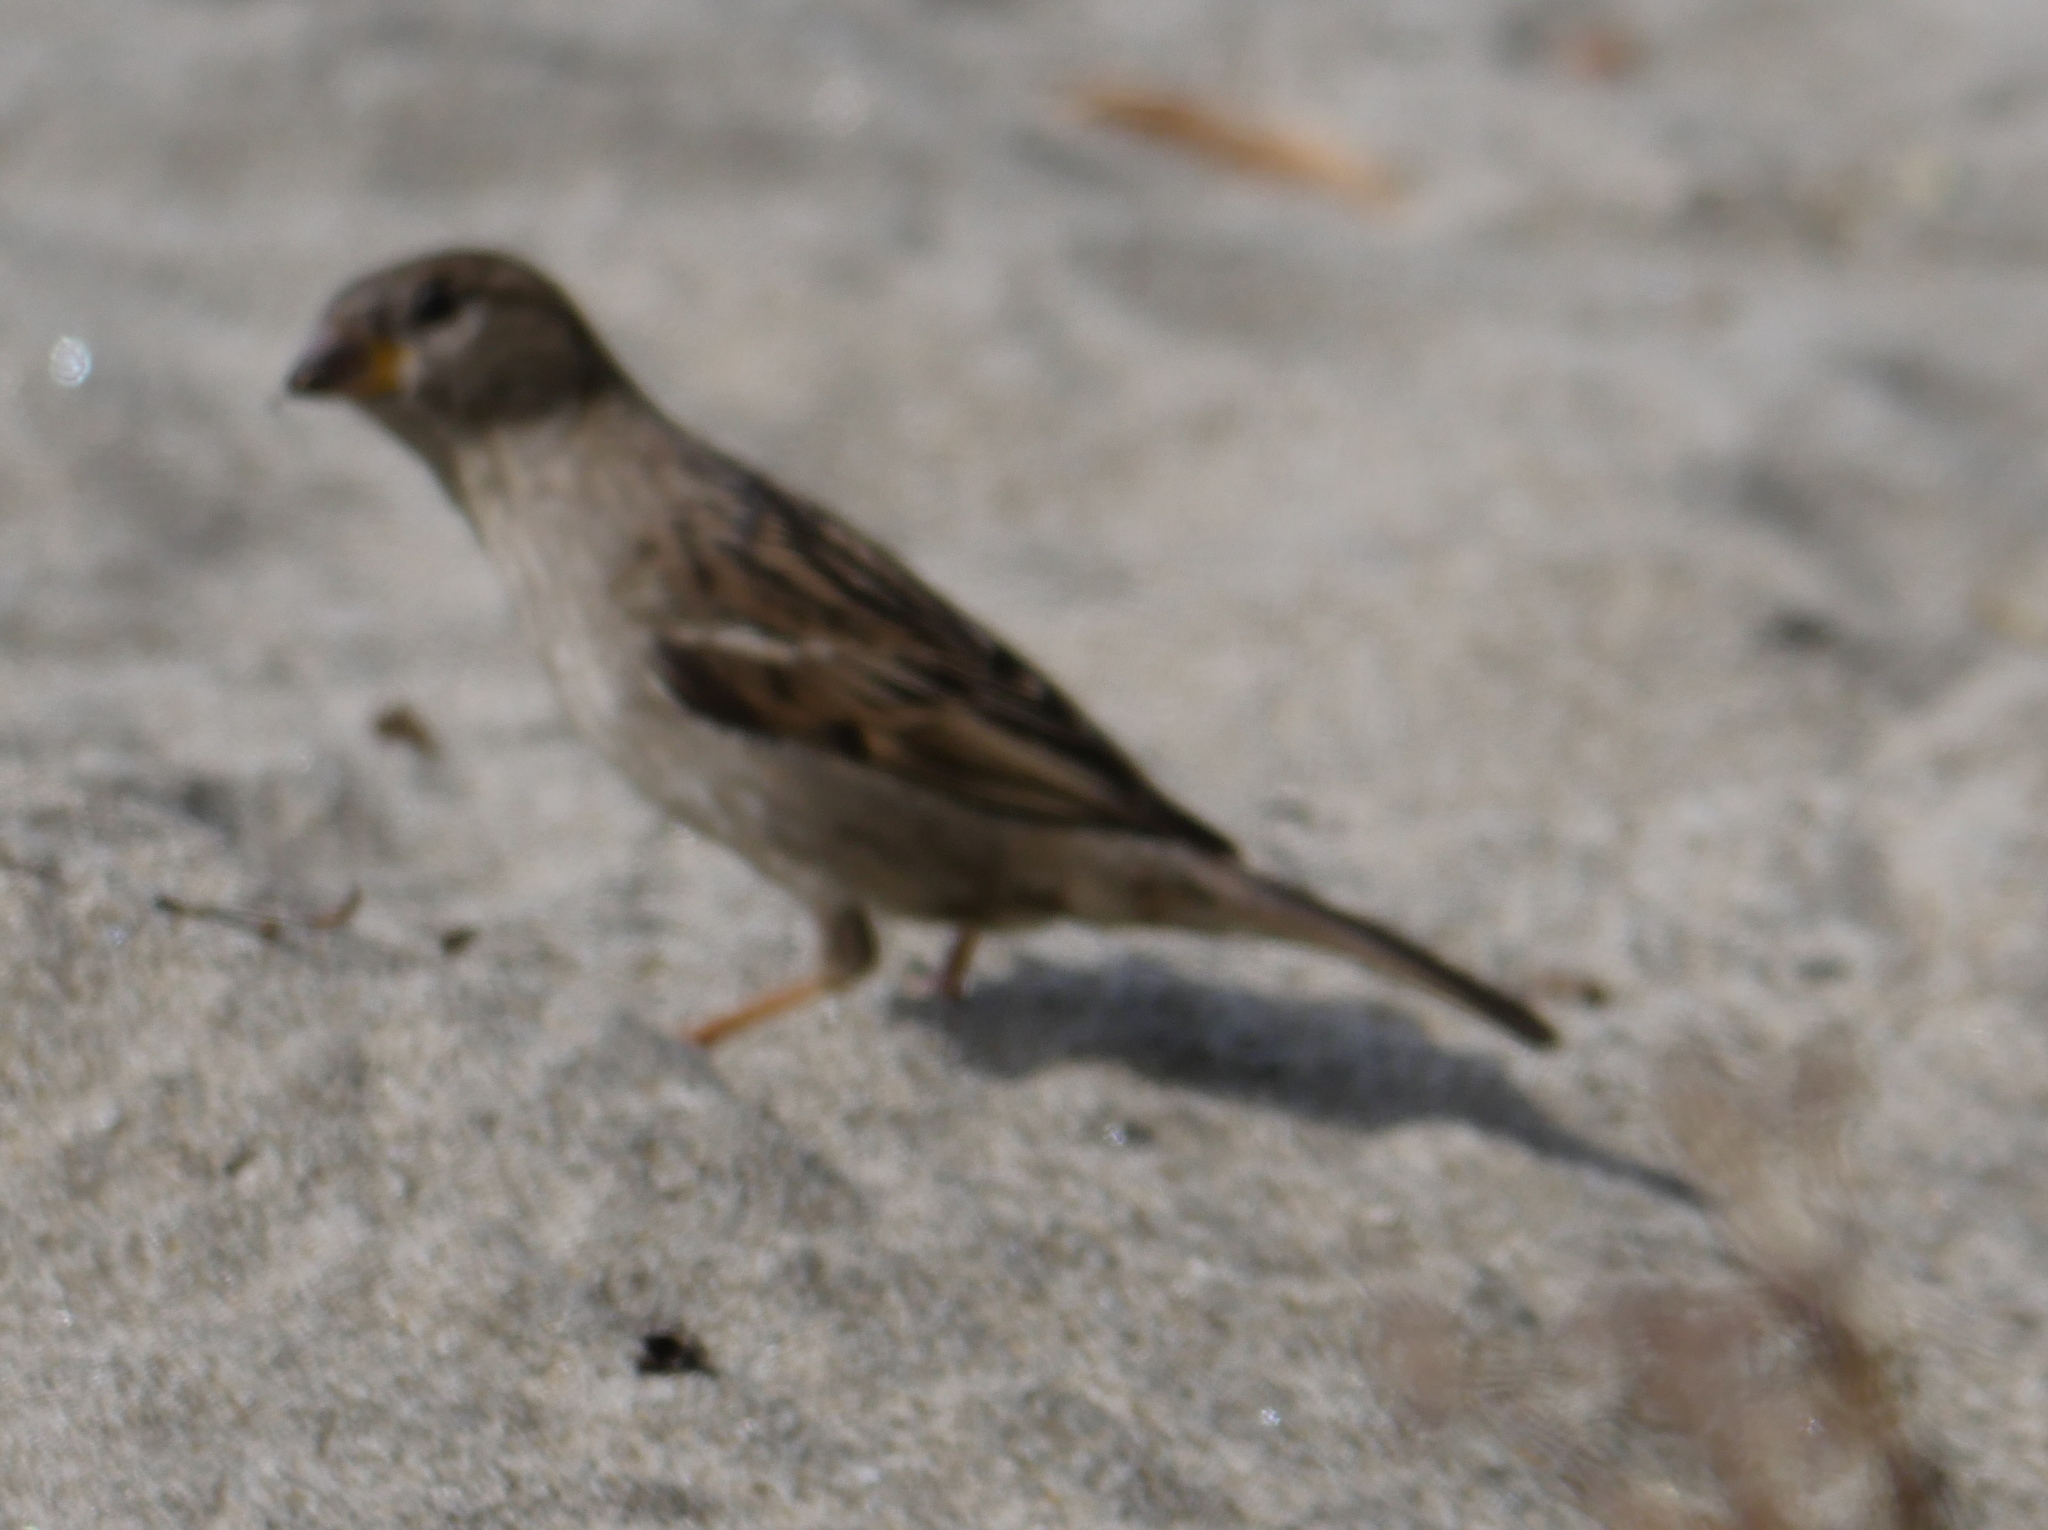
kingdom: Animalia
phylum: Chordata
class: Aves
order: Passeriformes
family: Passeridae
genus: Passer
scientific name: Passer domesticus
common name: House sparrow
